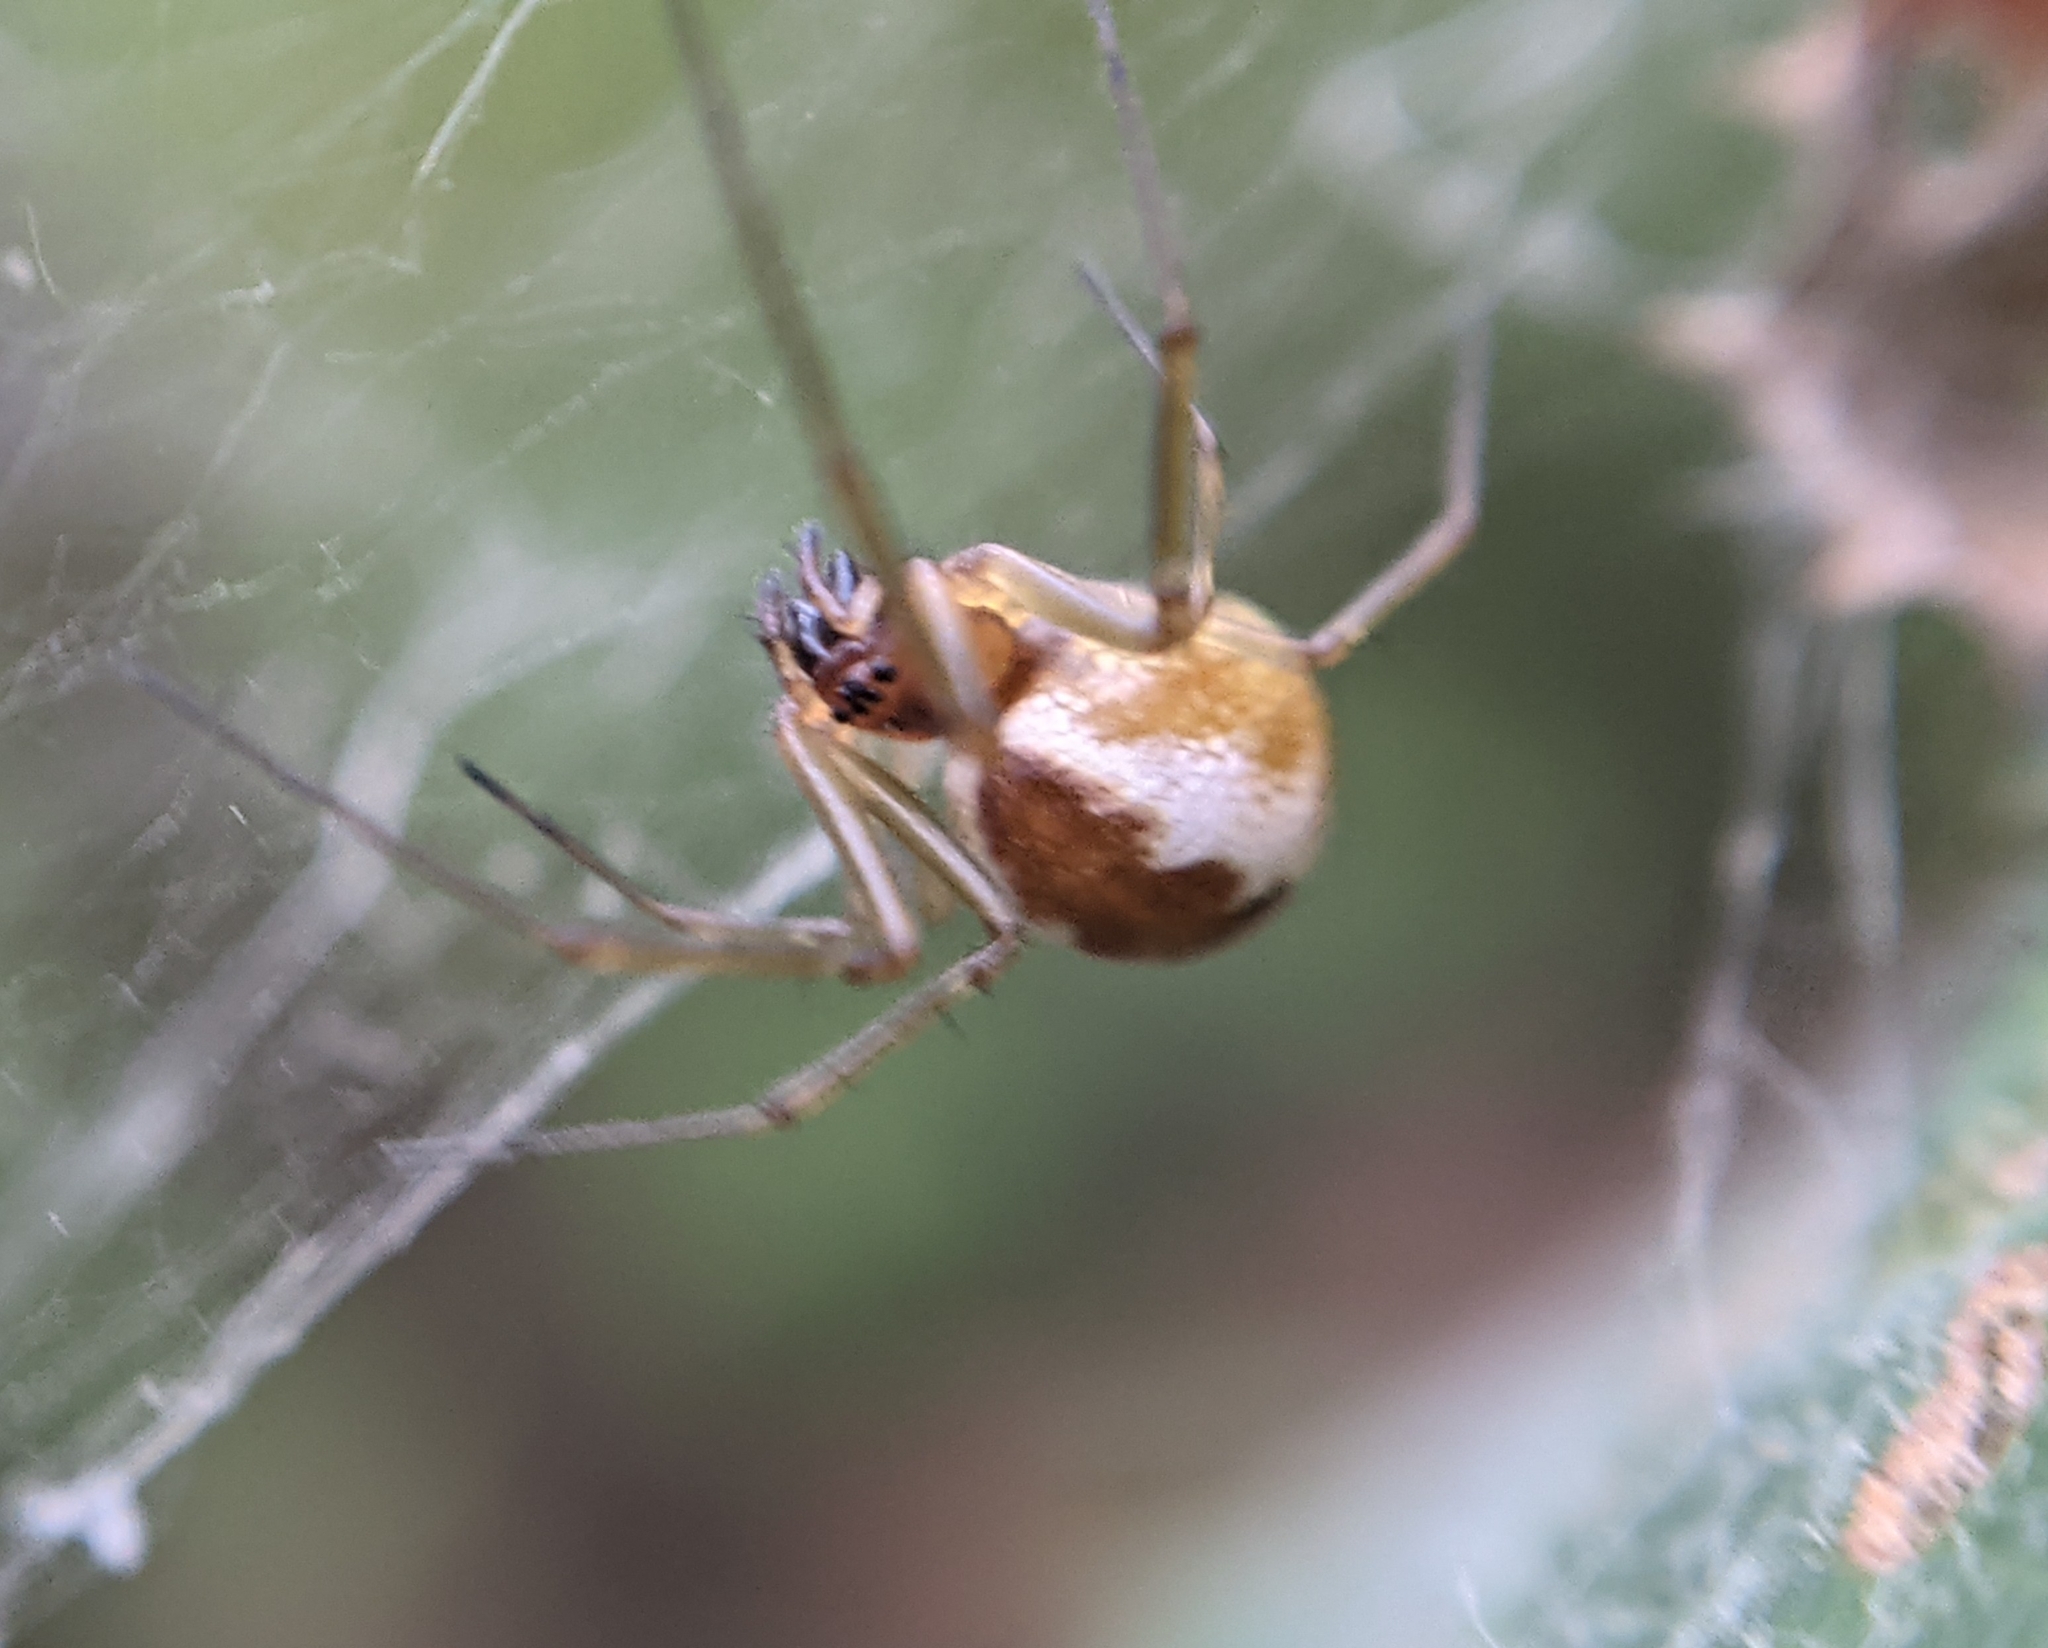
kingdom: Animalia
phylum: Arthropoda
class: Arachnida
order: Araneae
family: Linyphiidae
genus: Neriene
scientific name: Neriene peltata
